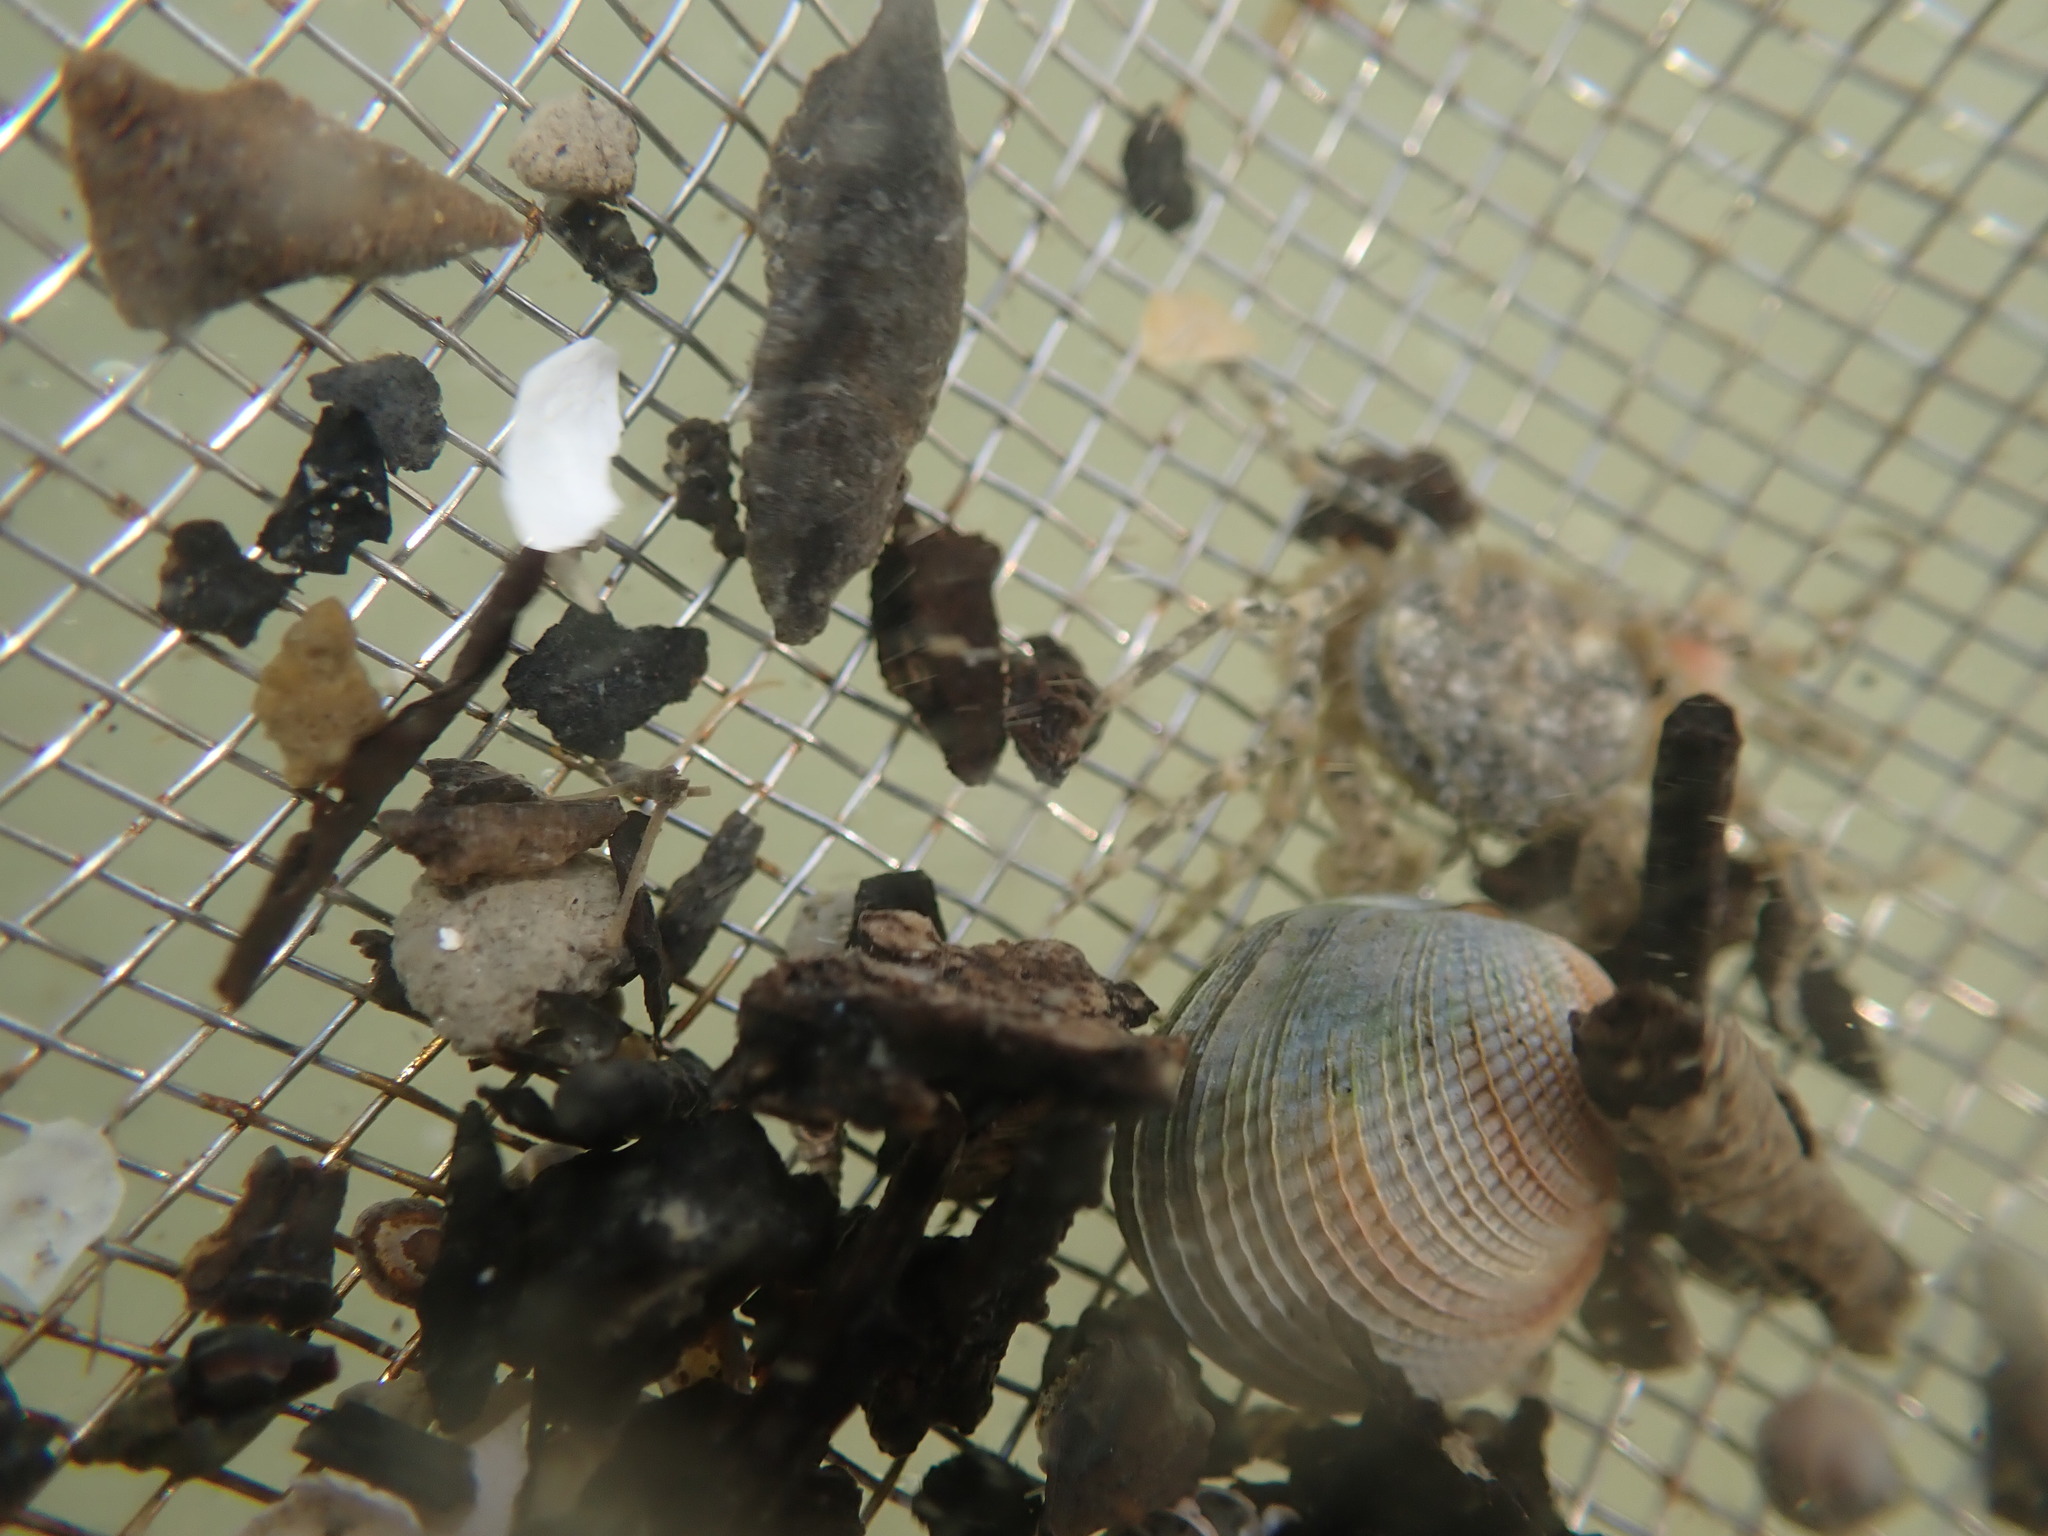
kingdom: Animalia
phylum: Mollusca
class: Bivalvia
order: Venerida
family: Veneridae
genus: Austrovenus
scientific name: Austrovenus stutchburyi
